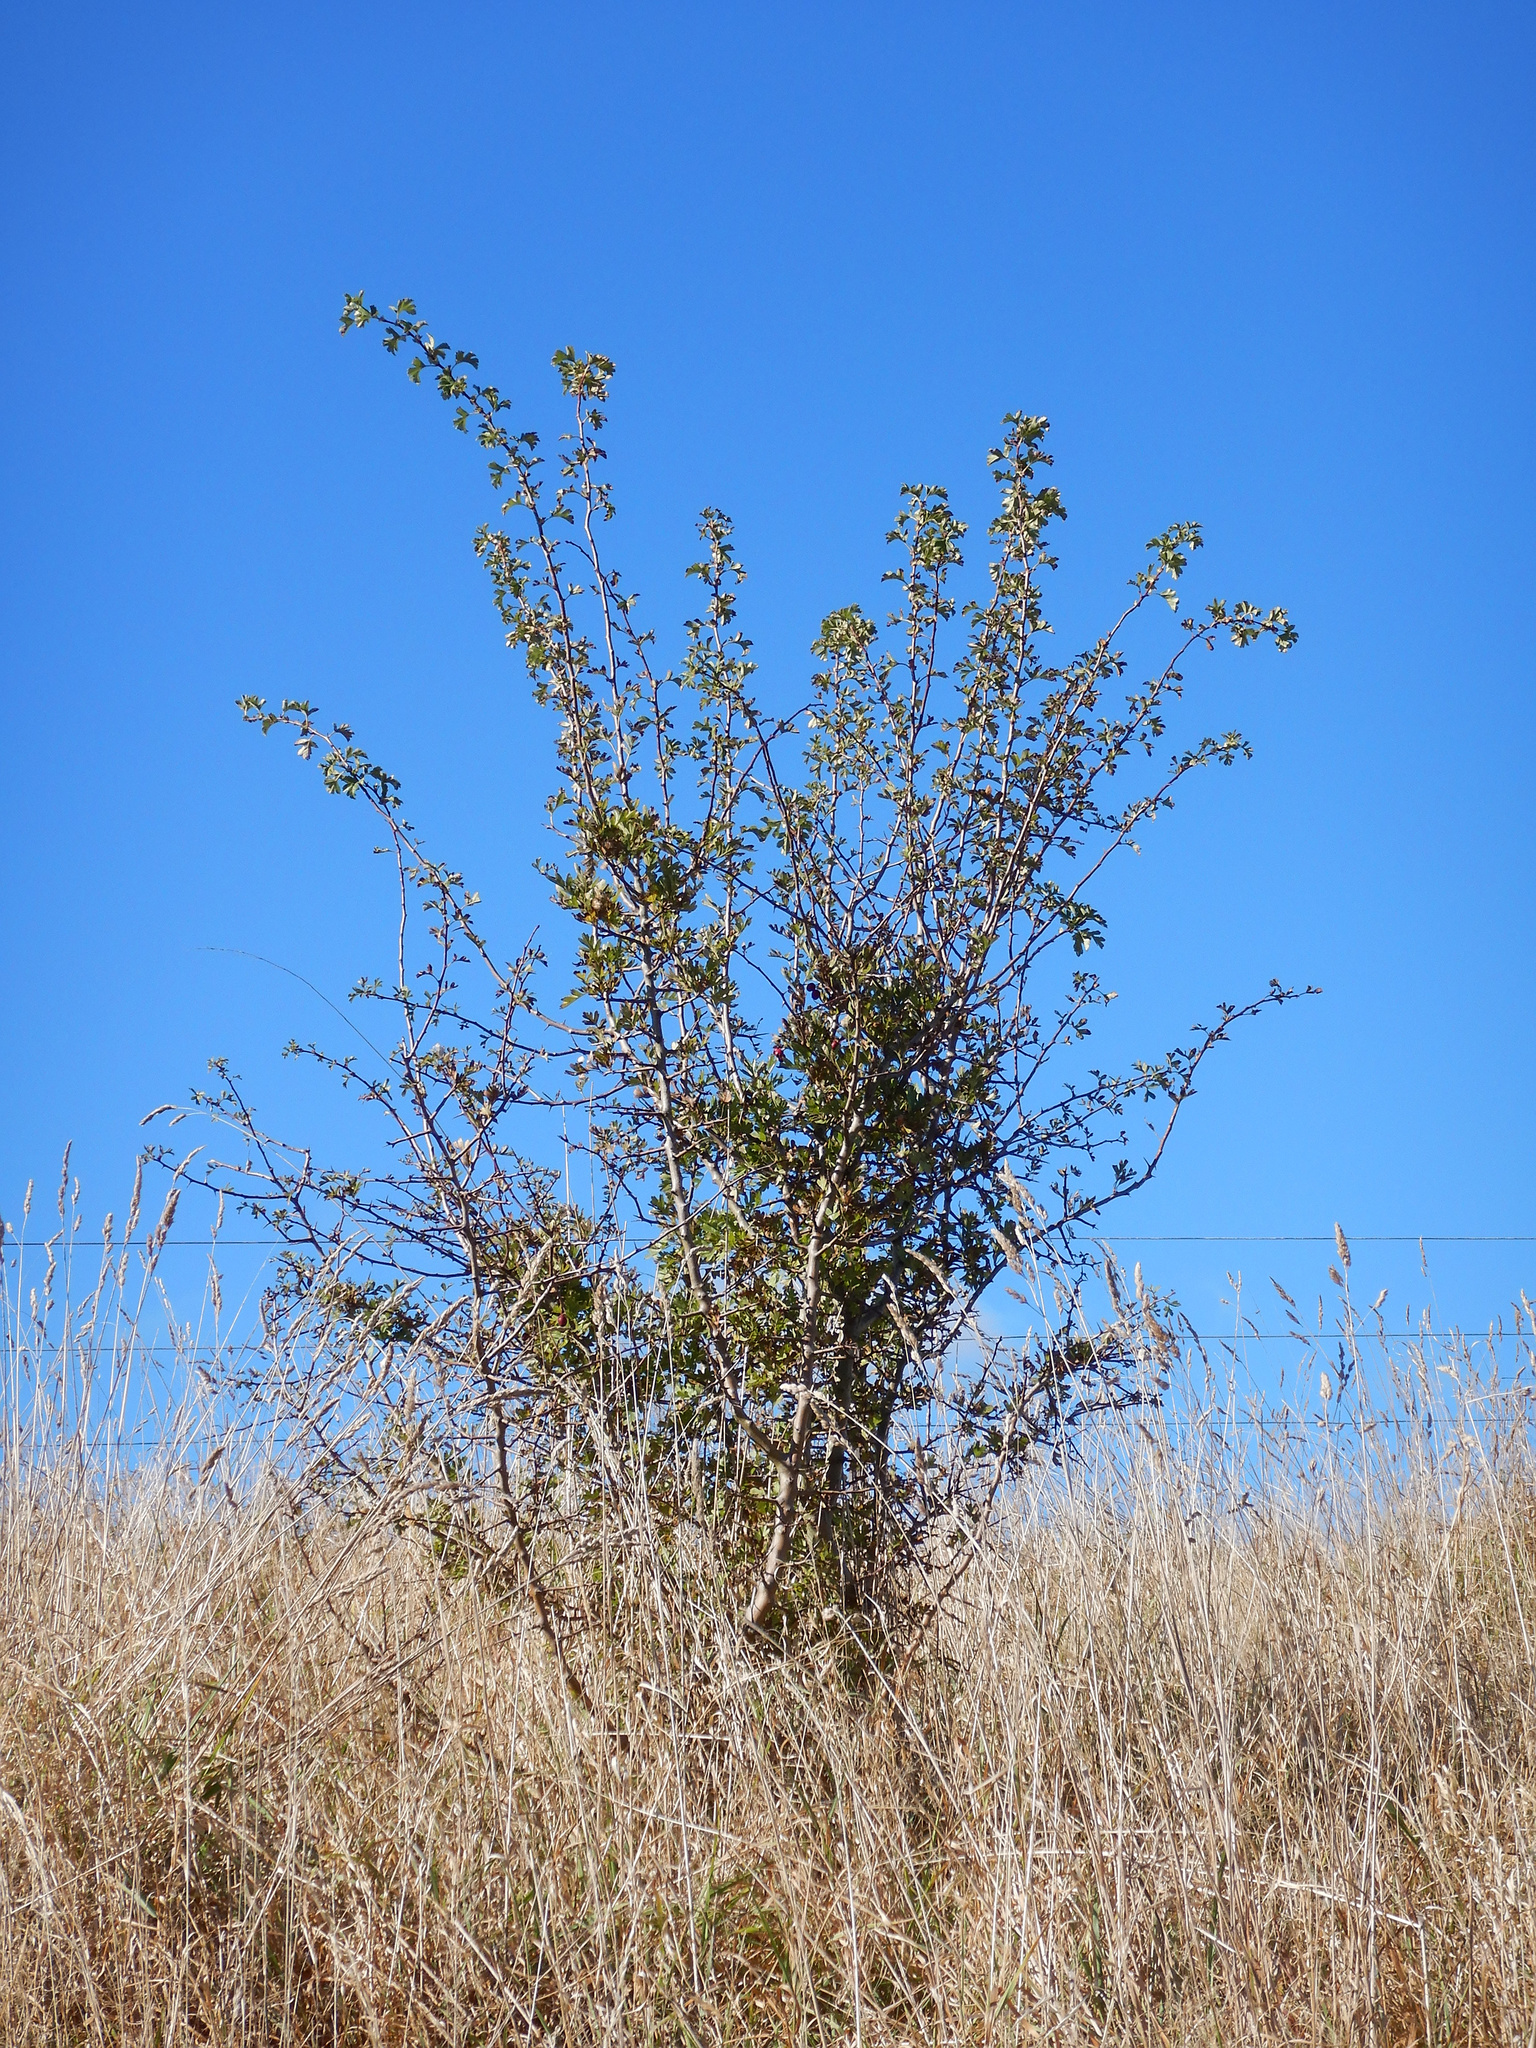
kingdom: Plantae
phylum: Tracheophyta
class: Magnoliopsida
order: Rosales
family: Rosaceae
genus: Crataegus
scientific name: Crataegus monogyna
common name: Hawthorn
